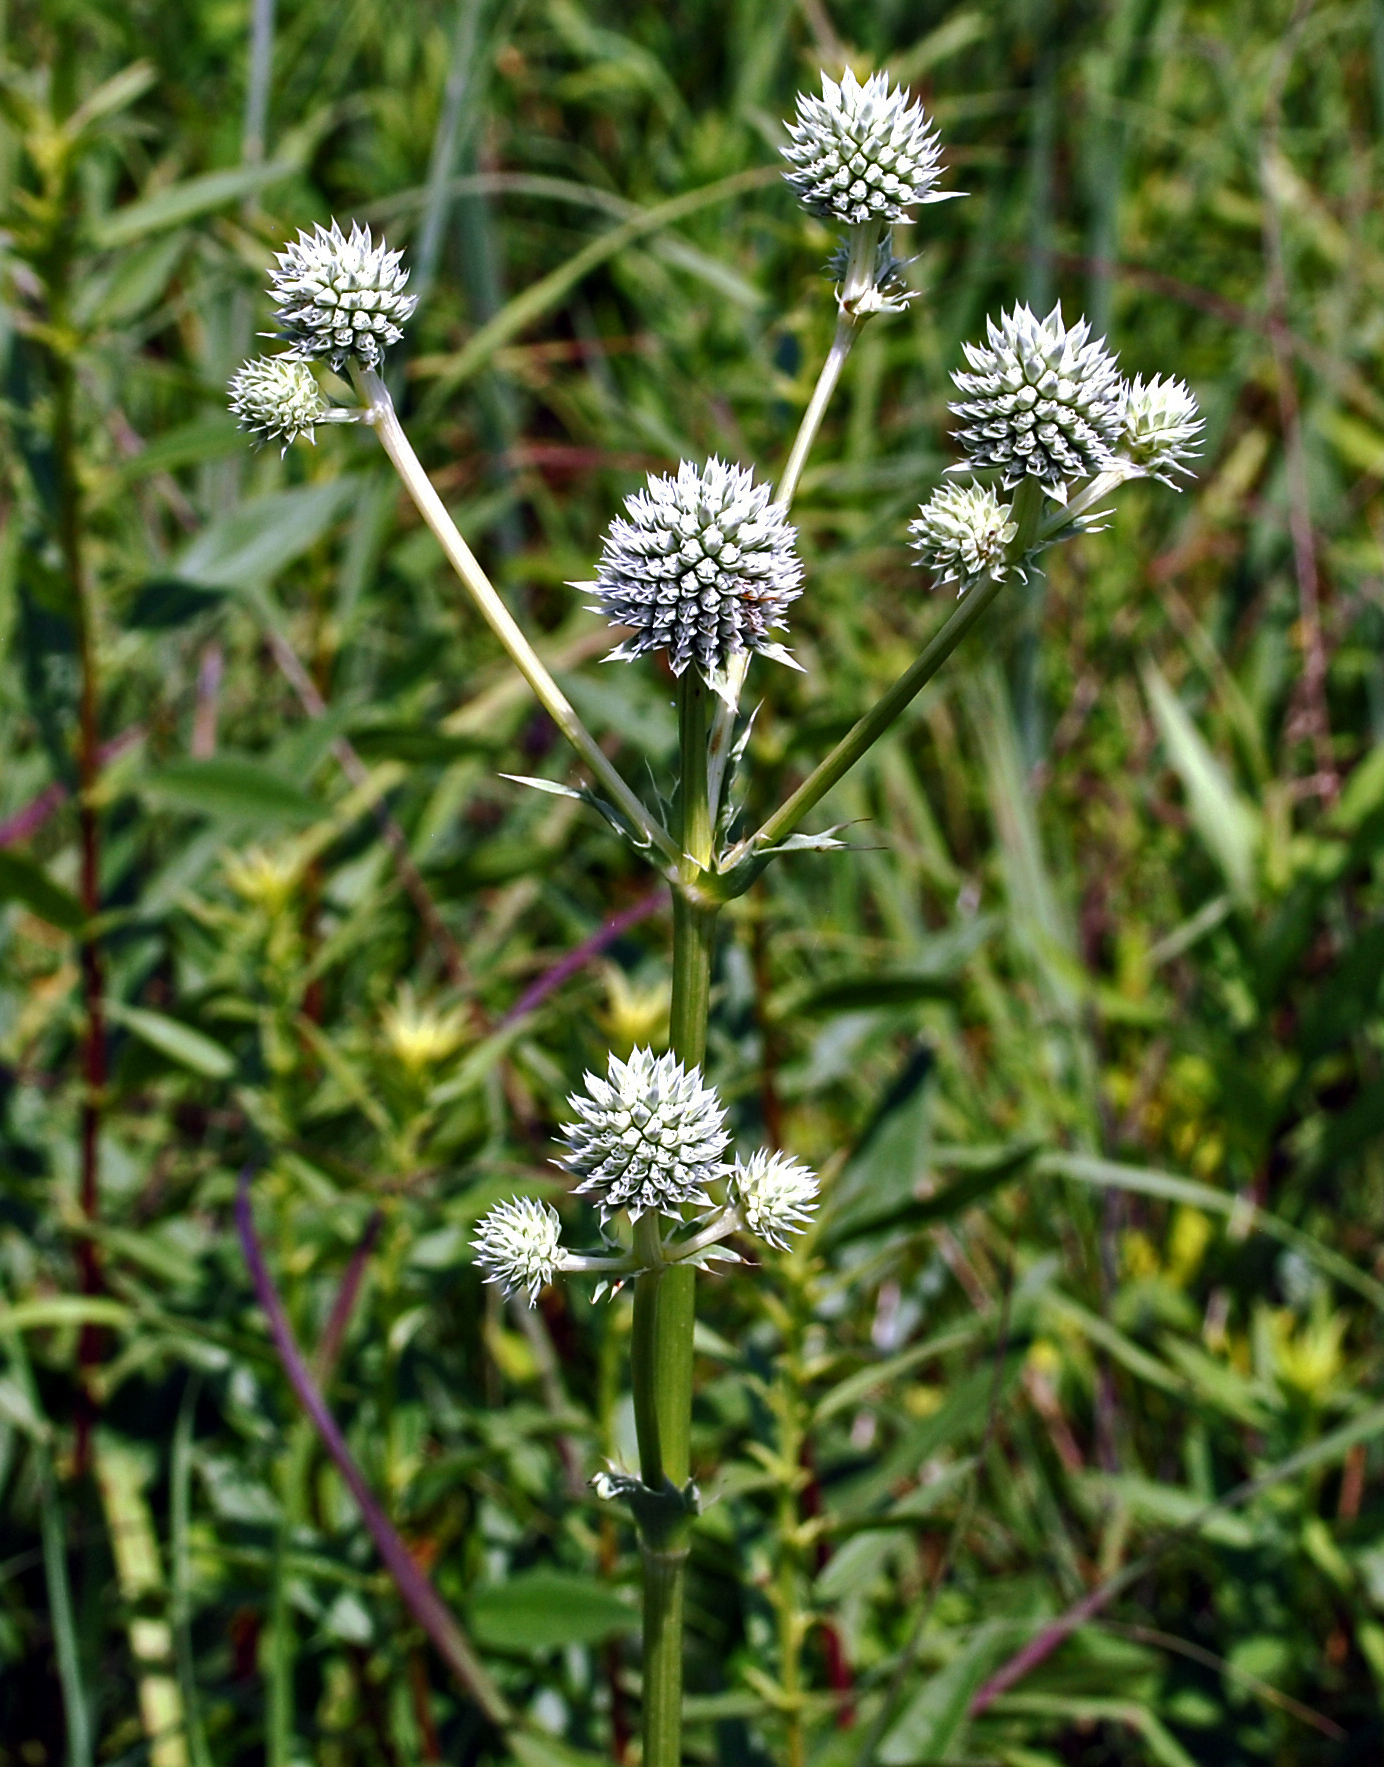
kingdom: Plantae
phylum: Tracheophyta
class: Magnoliopsida
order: Apiales
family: Apiaceae
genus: Eryngium
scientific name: Eryngium yuccifolium
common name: Button eryngo
